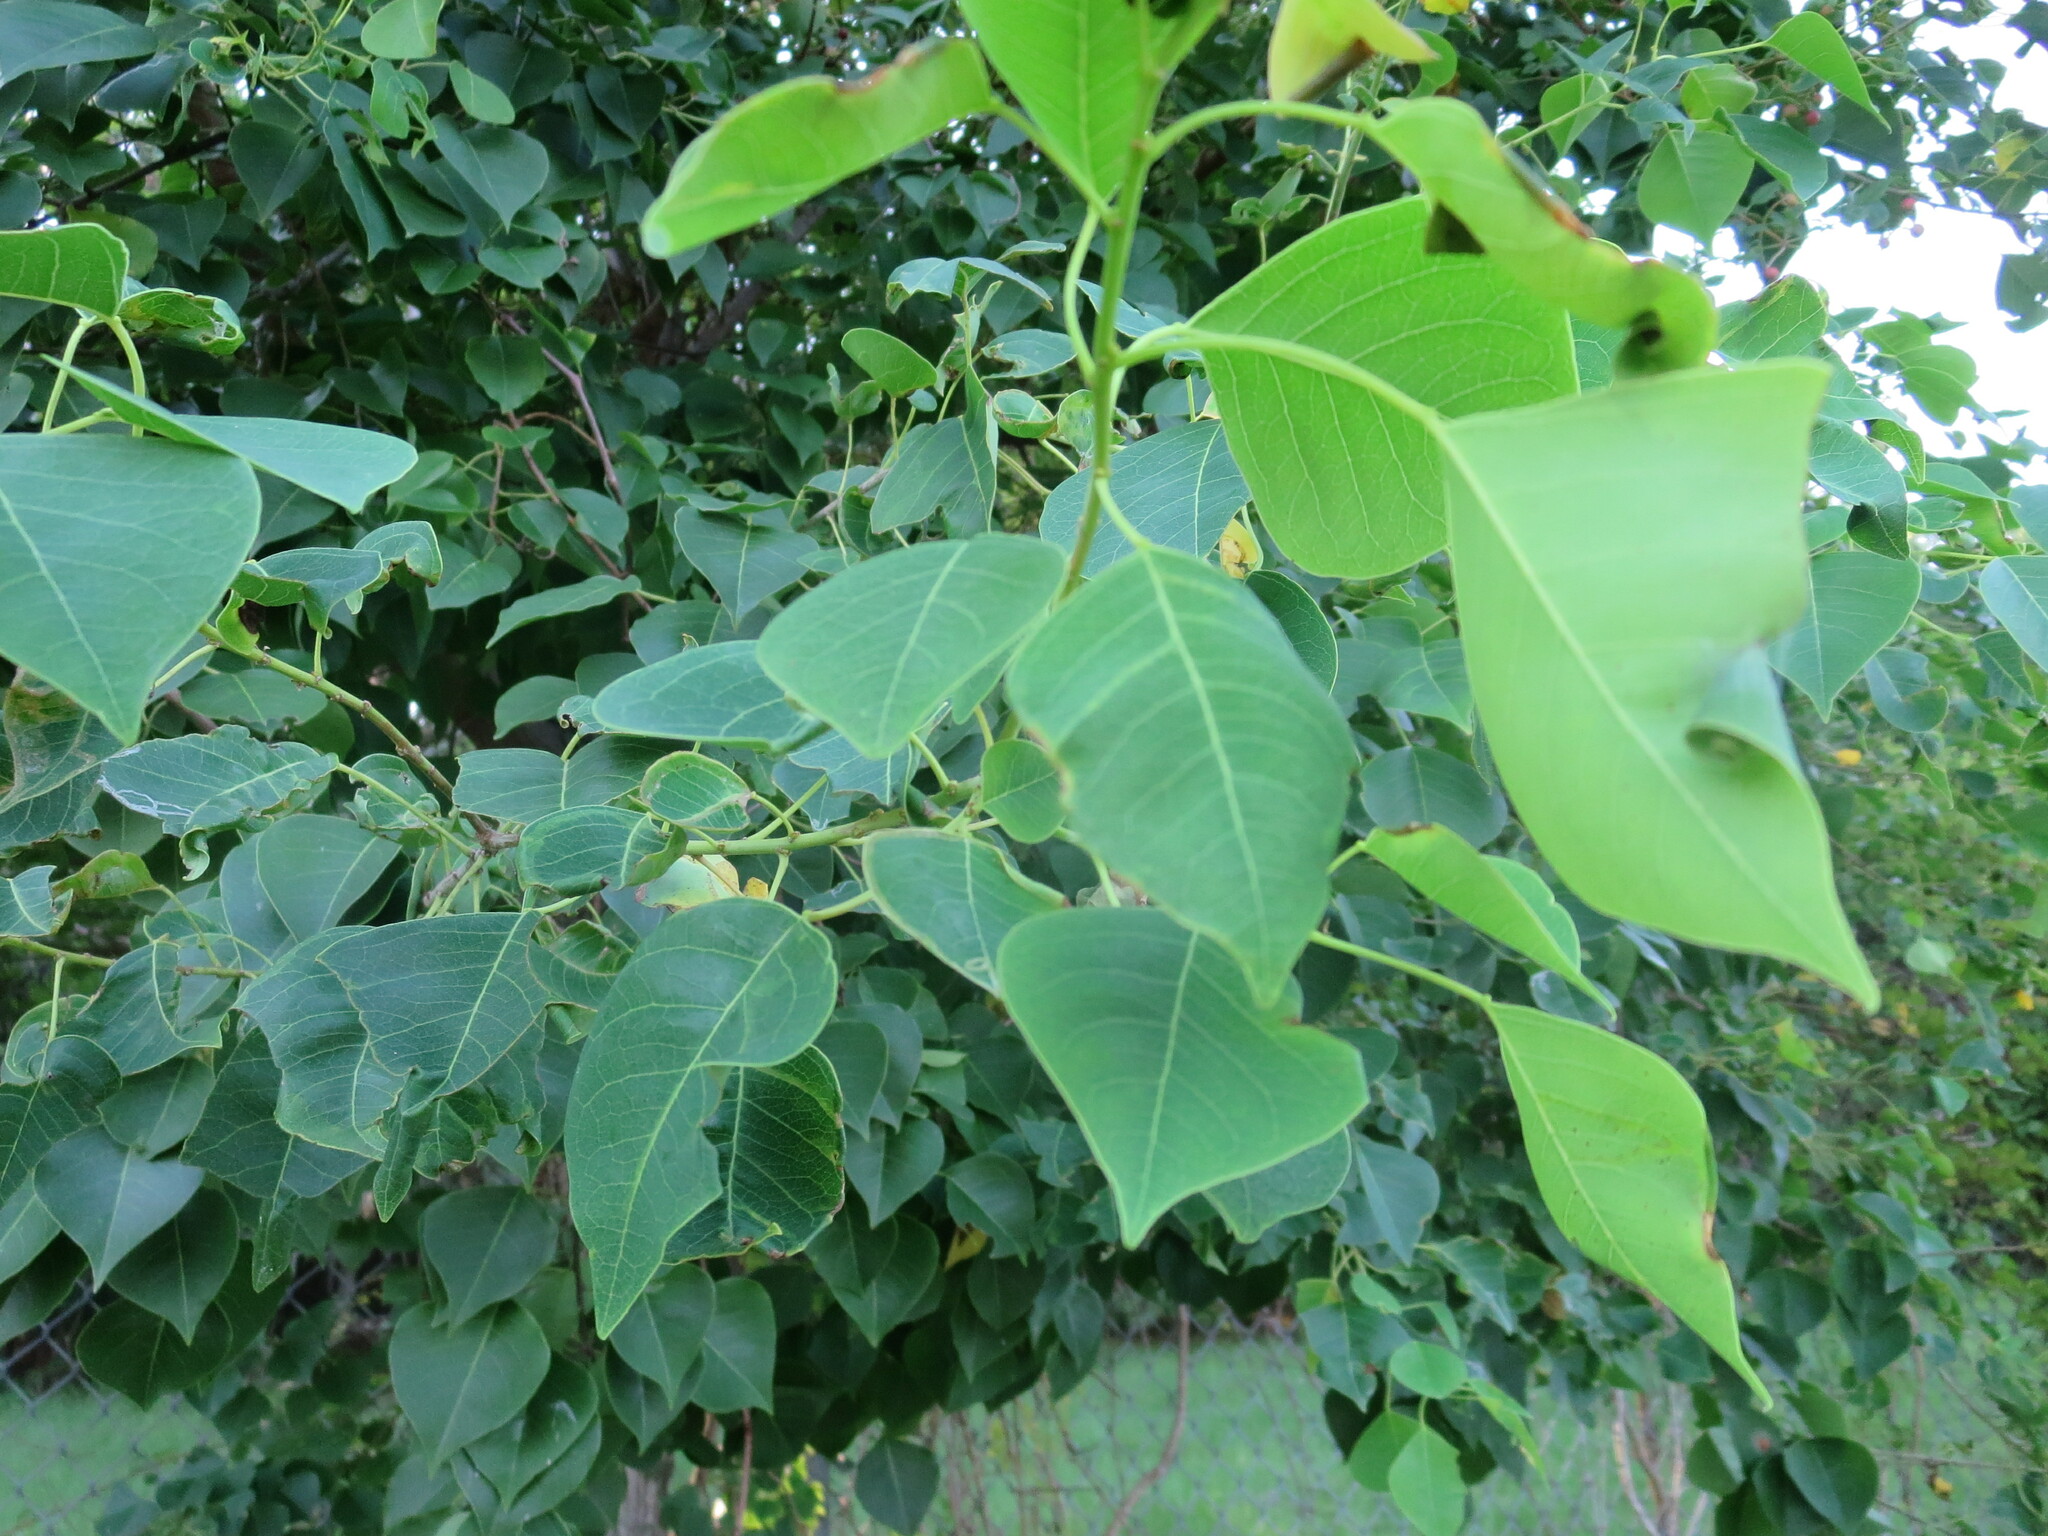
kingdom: Plantae
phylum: Tracheophyta
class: Magnoliopsida
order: Malpighiales
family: Euphorbiaceae
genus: Triadica
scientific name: Triadica sebifera
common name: Chinese tallow
